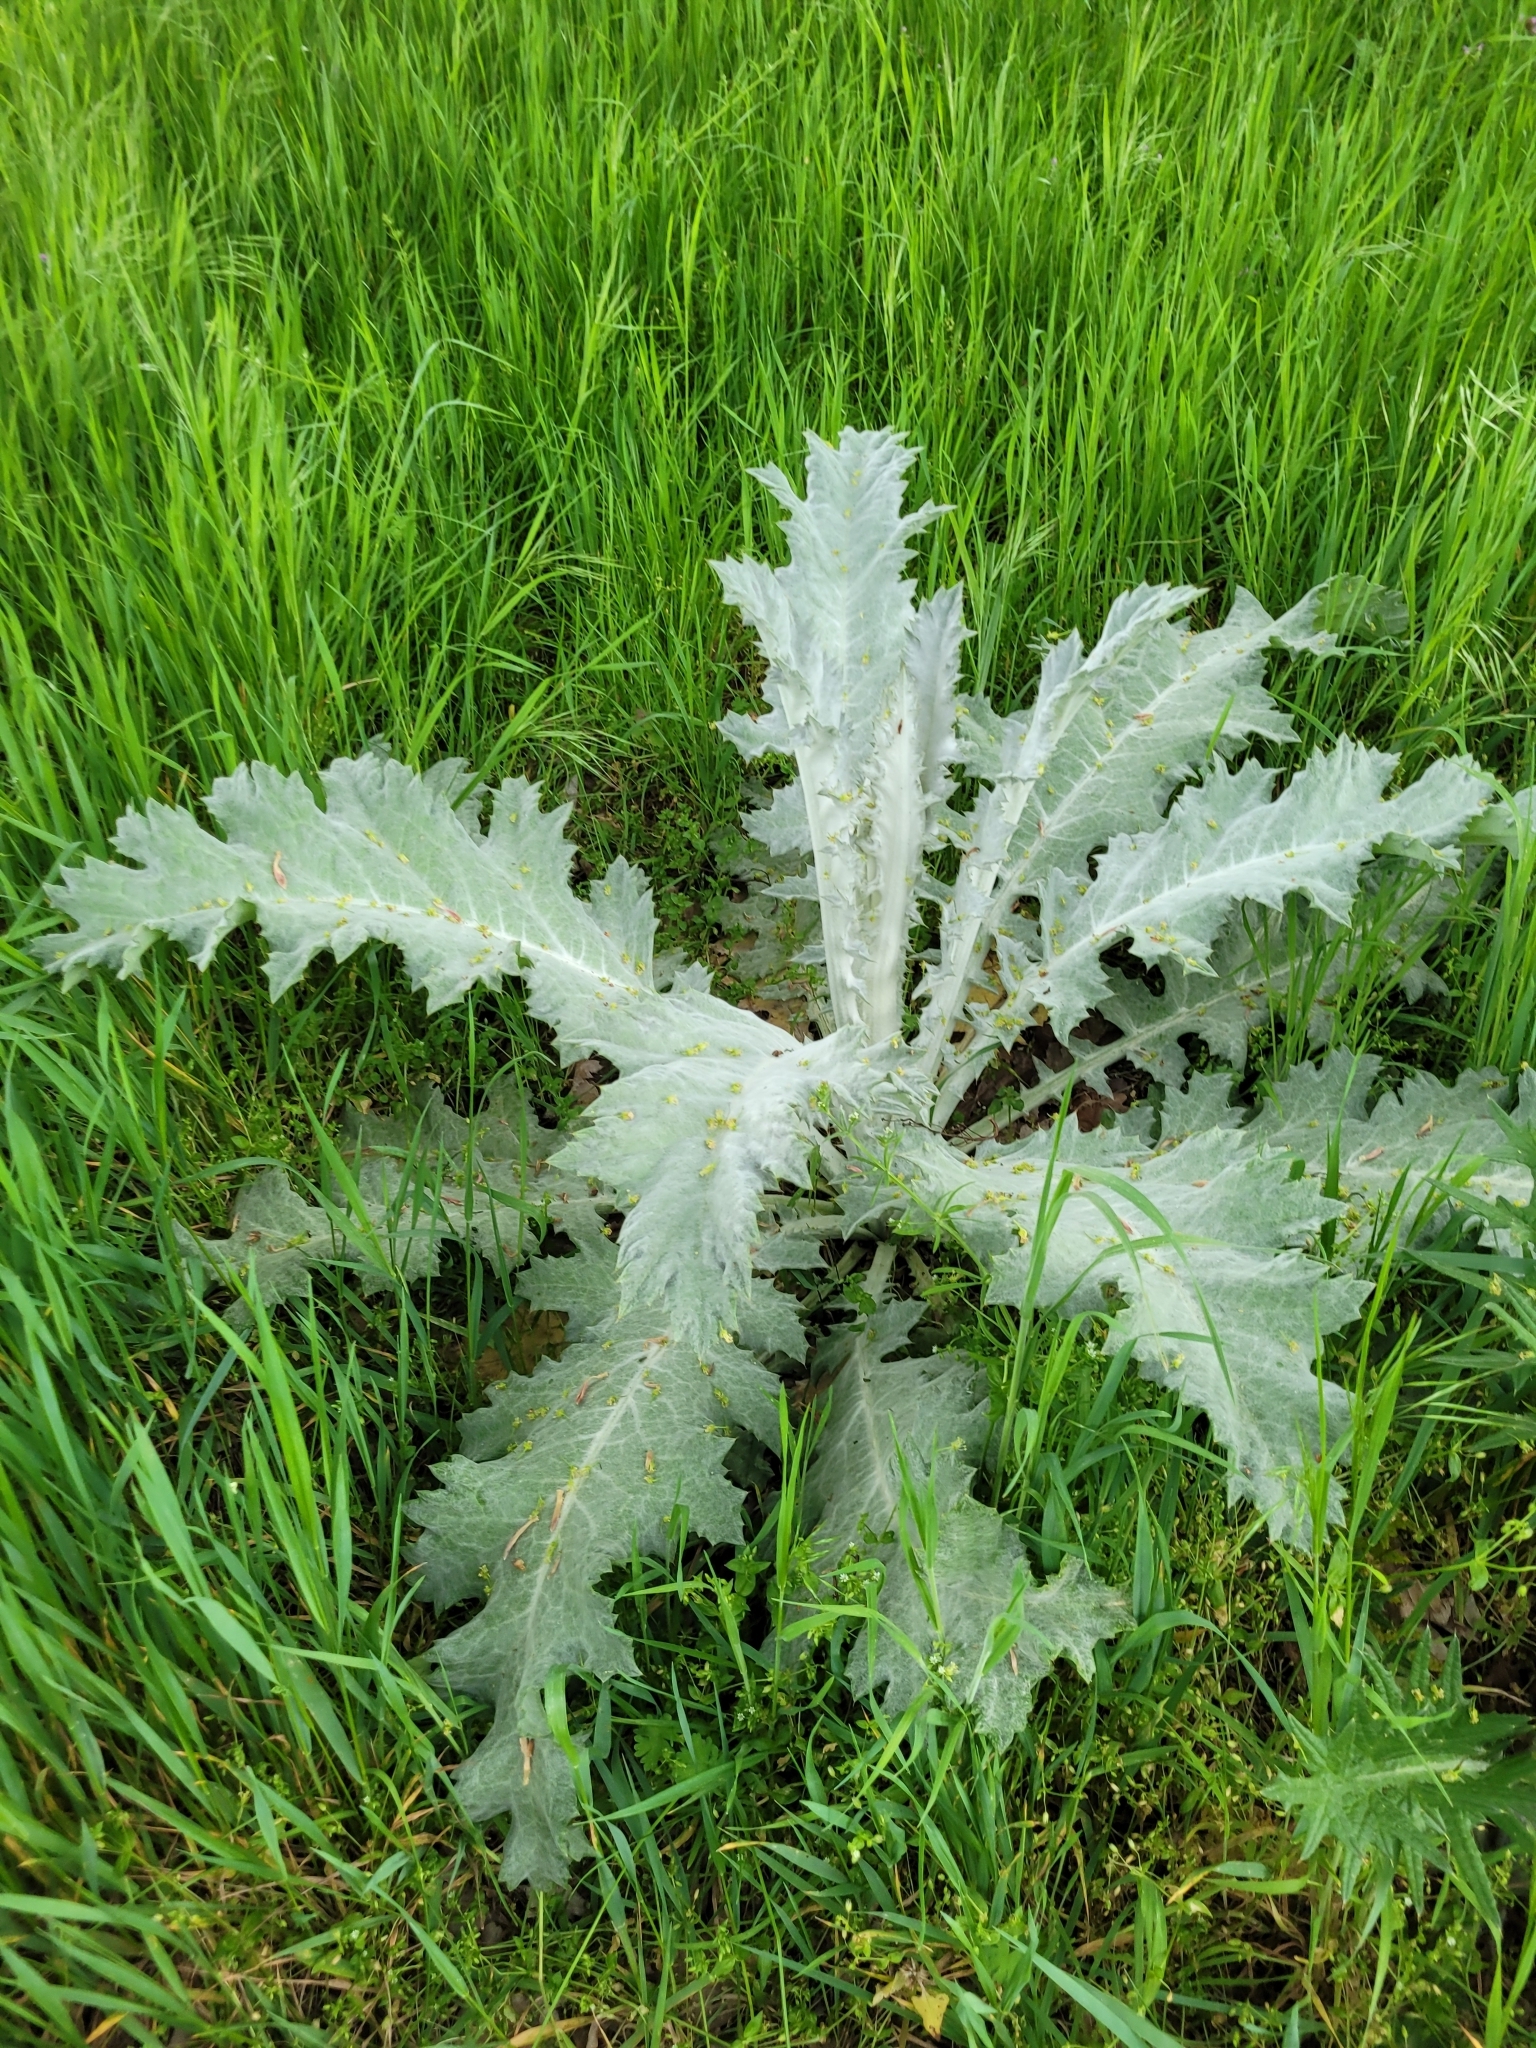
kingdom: Plantae
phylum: Tracheophyta
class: Magnoliopsida
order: Asterales
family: Asteraceae
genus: Onopordum
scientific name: Onopordum acanthium
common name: Scotch thistle
